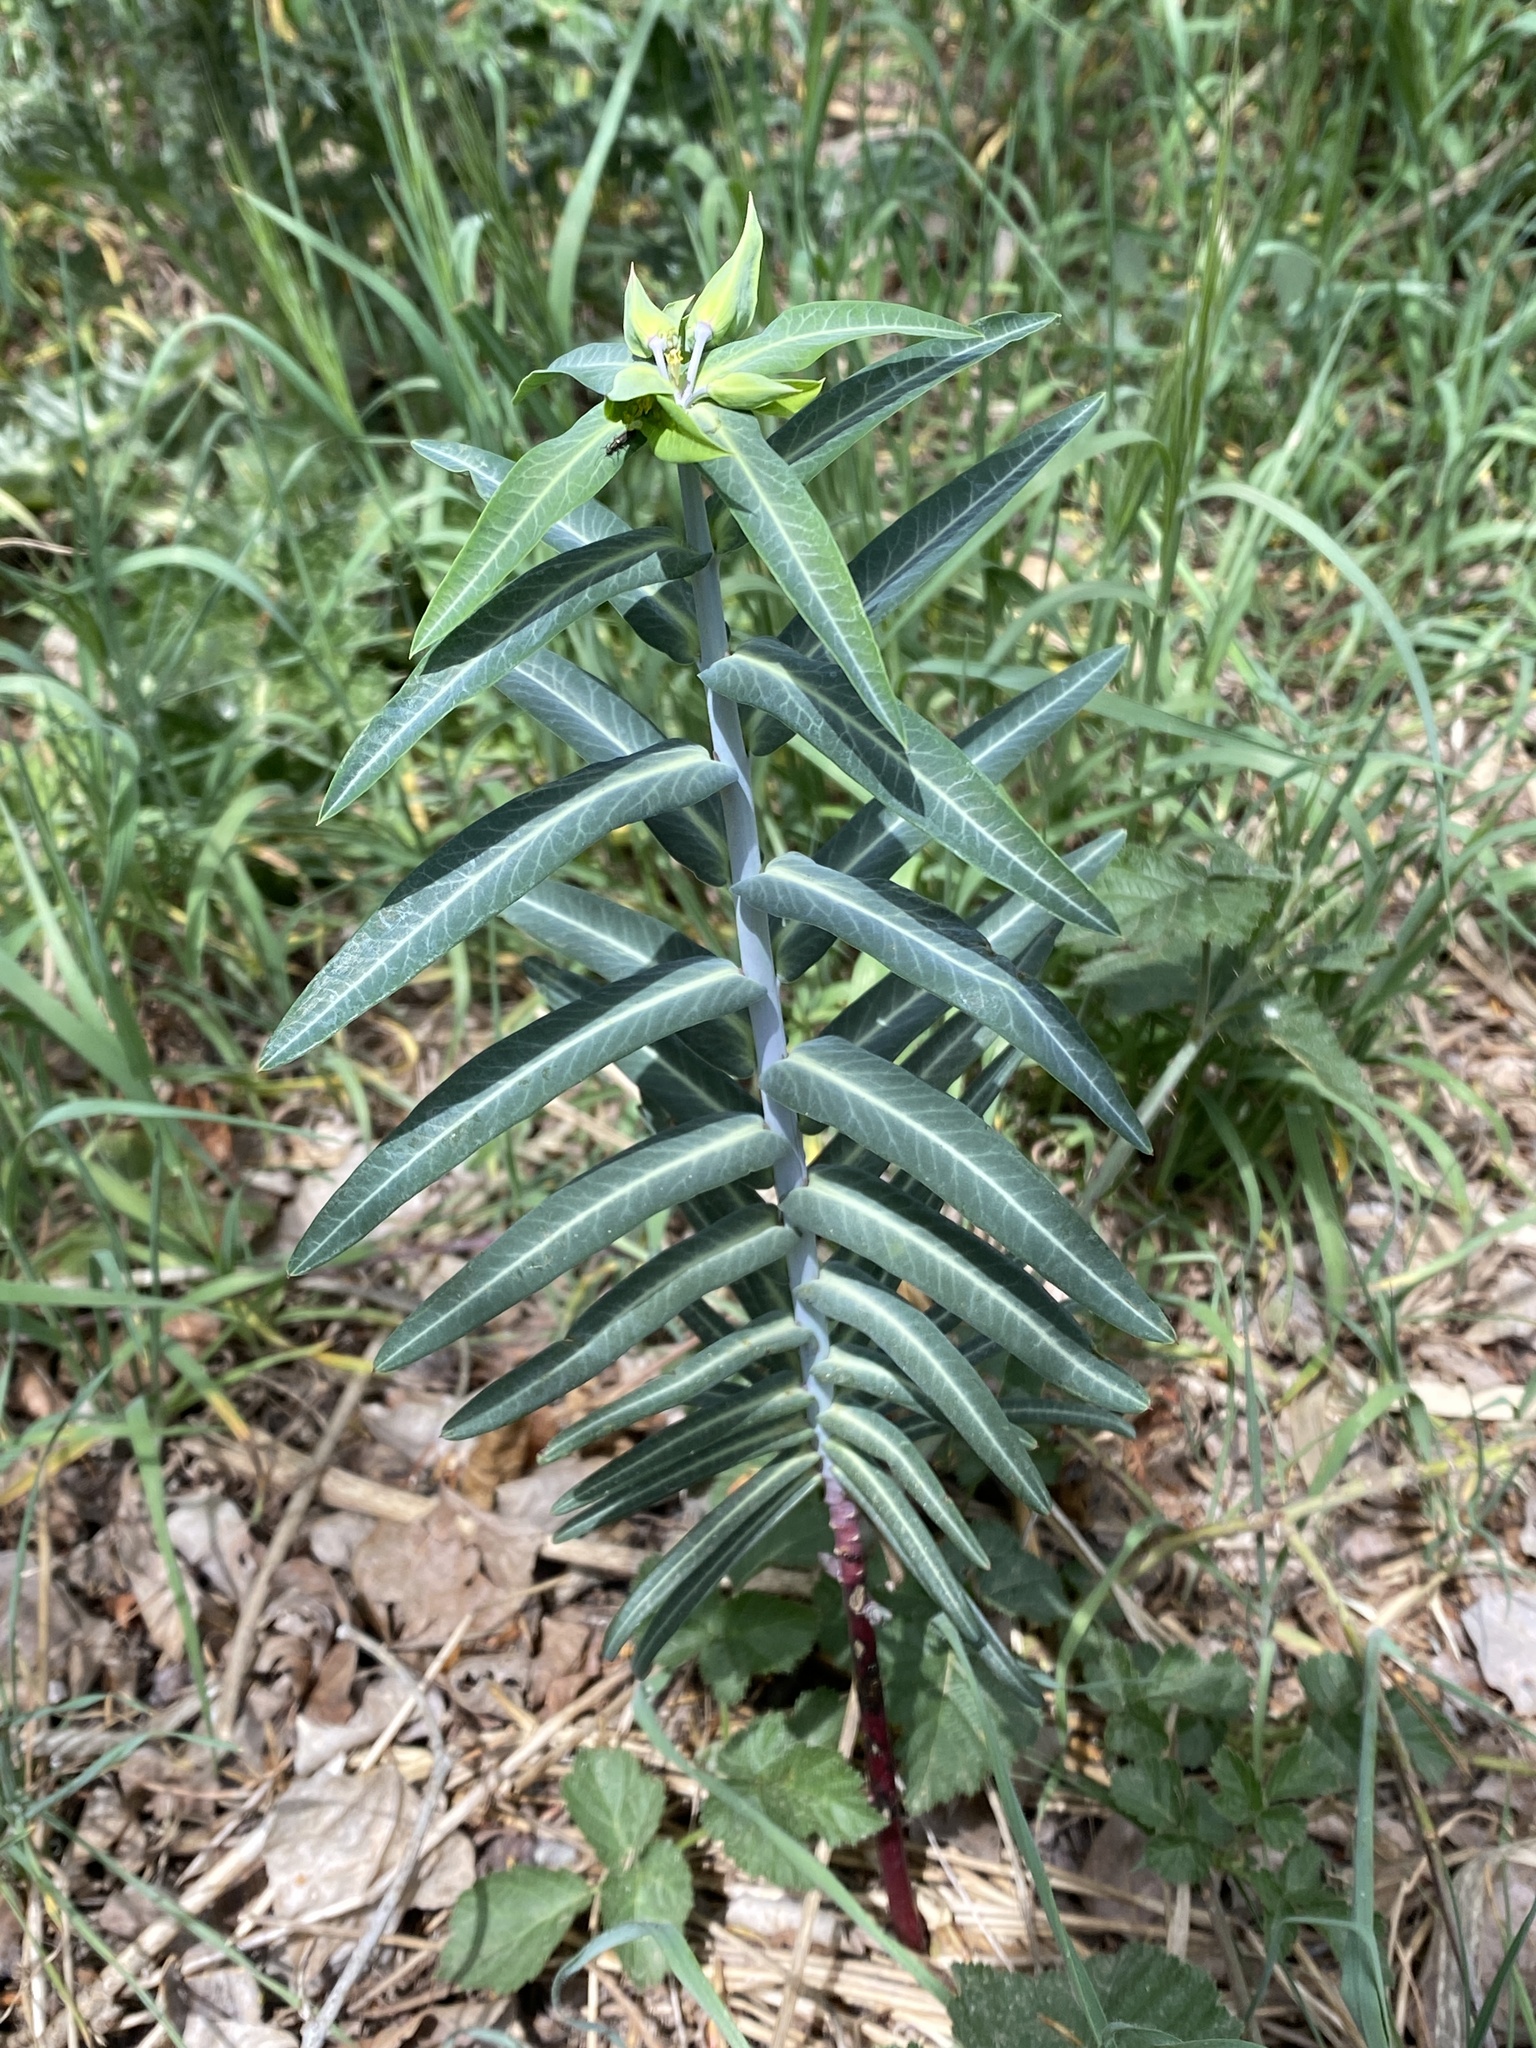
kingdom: Plantae
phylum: Tracheophyta
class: Magnoliopsida
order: Malpighiales
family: Euphorbiaceae
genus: Euphorbia
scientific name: Euphorbia lathyris
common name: Caper spurge
